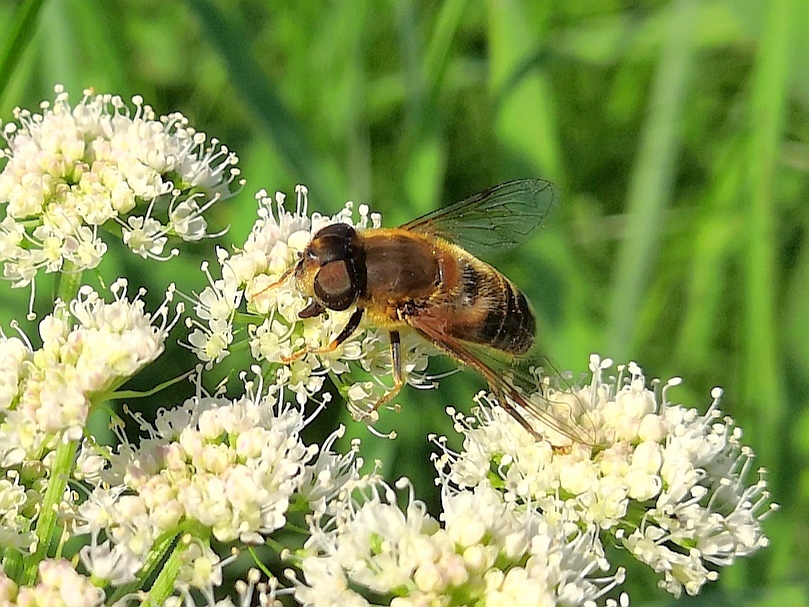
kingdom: Animalia
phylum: Arthropoda
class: Insecta
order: Diptera
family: Syrphidae
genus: Eristalis
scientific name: Eristalis pertinax
